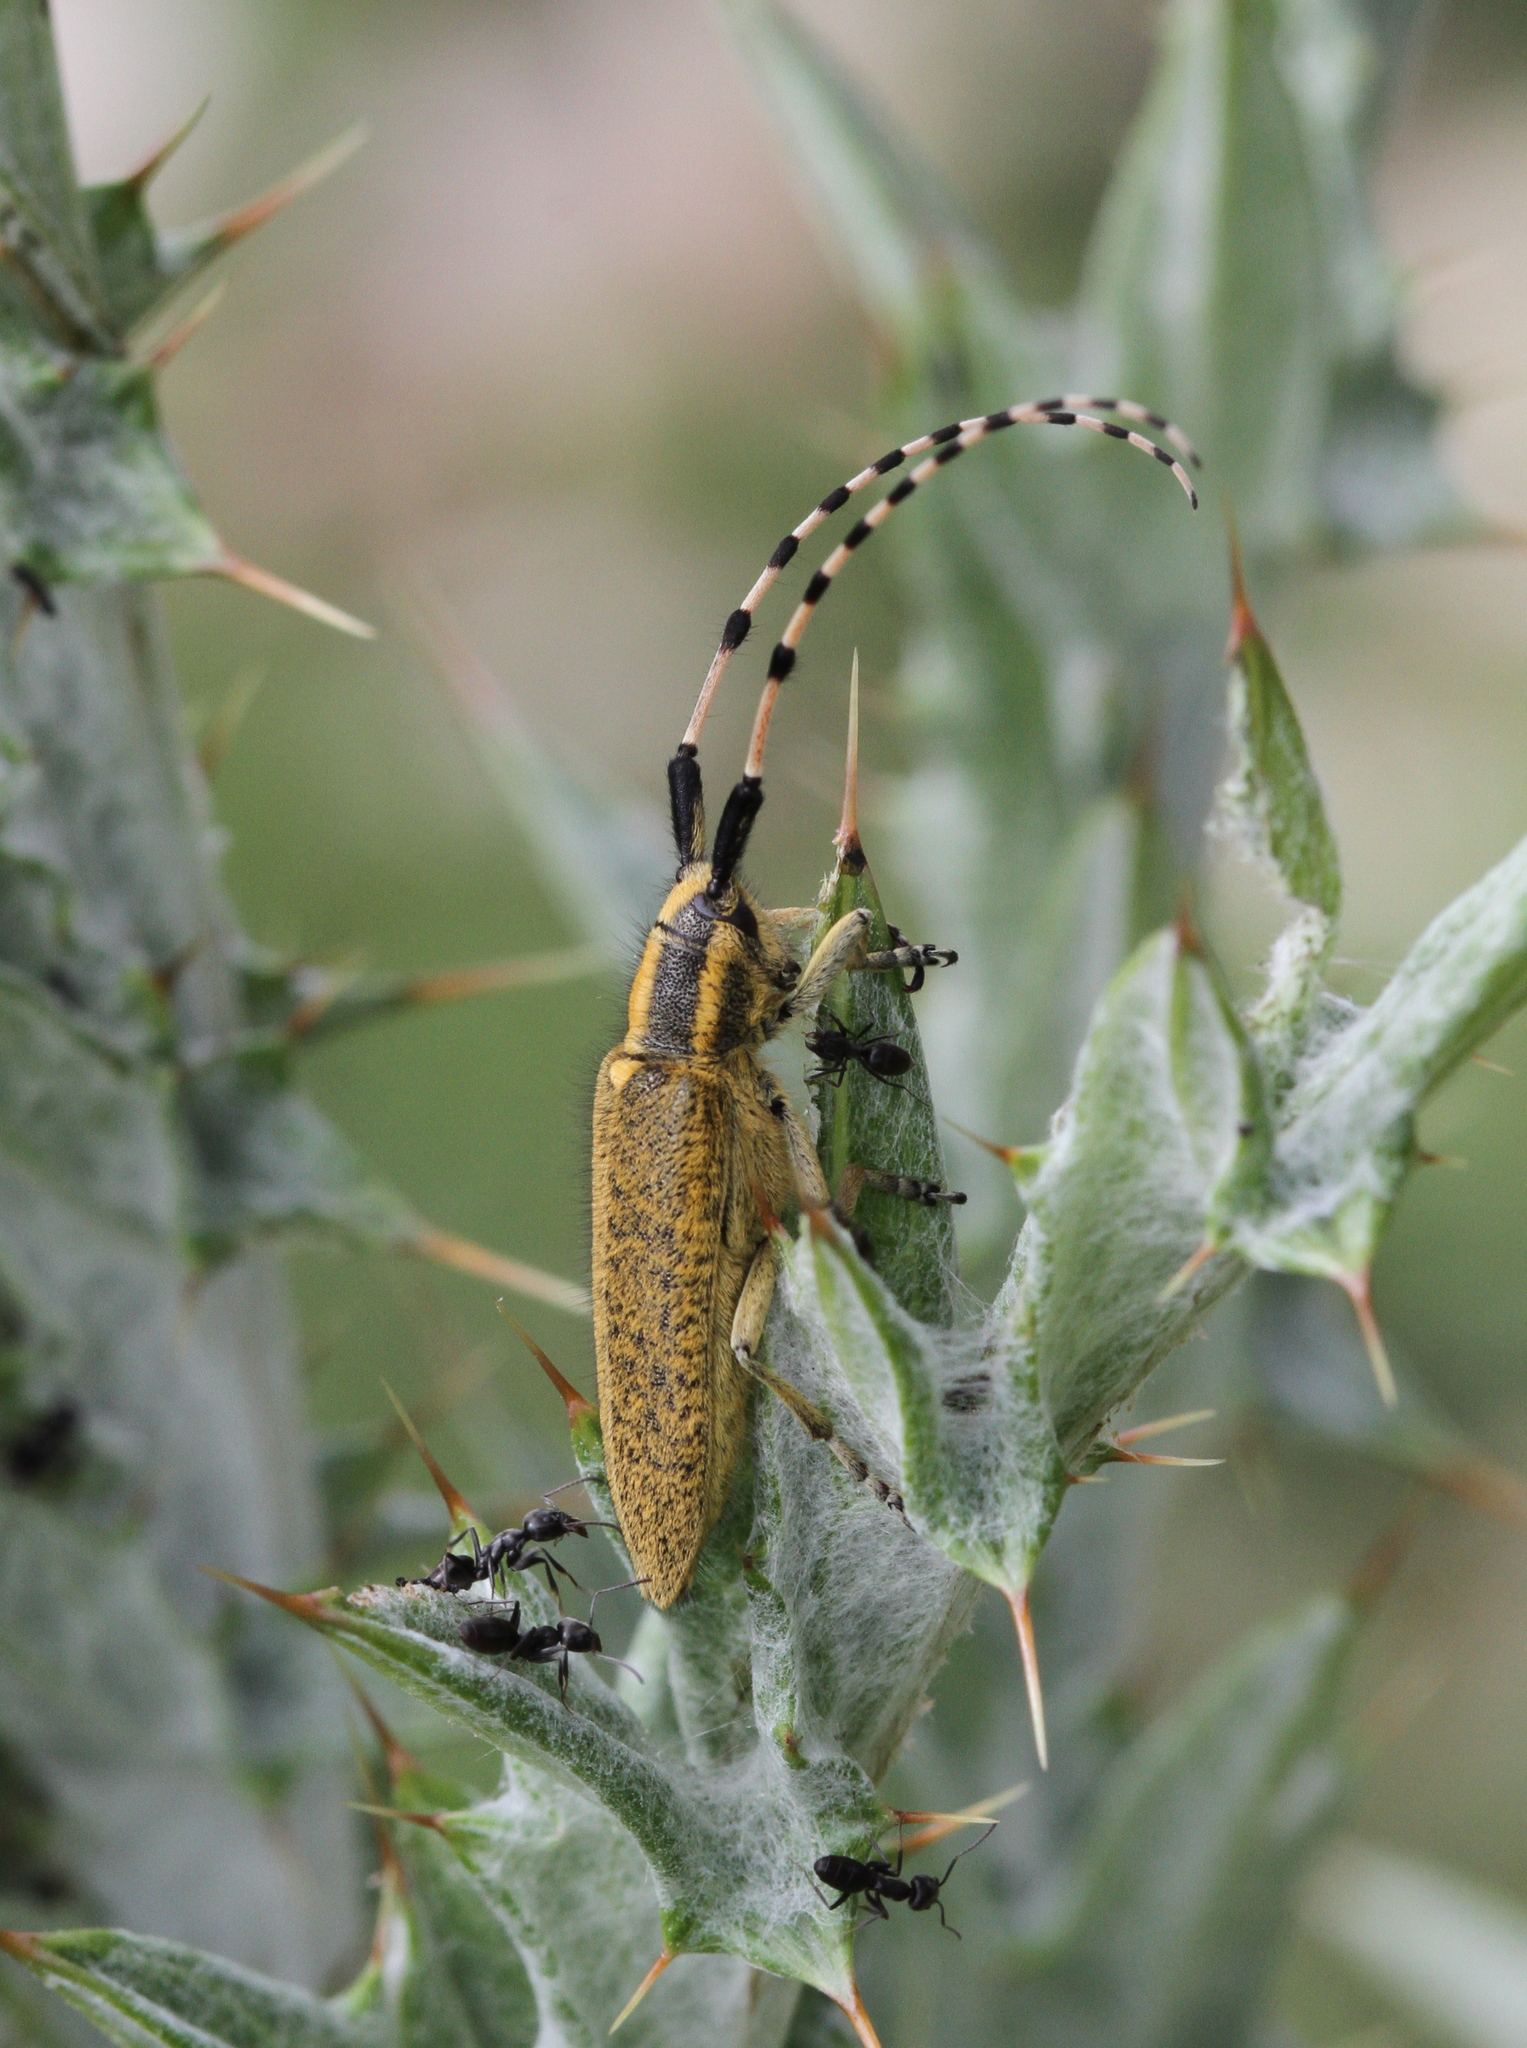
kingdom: Animalia
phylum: Arthropoda
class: Insecta
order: Coleoptera
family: Cerambycidae
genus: Agapanthia
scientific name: Agapanthia dahlii
